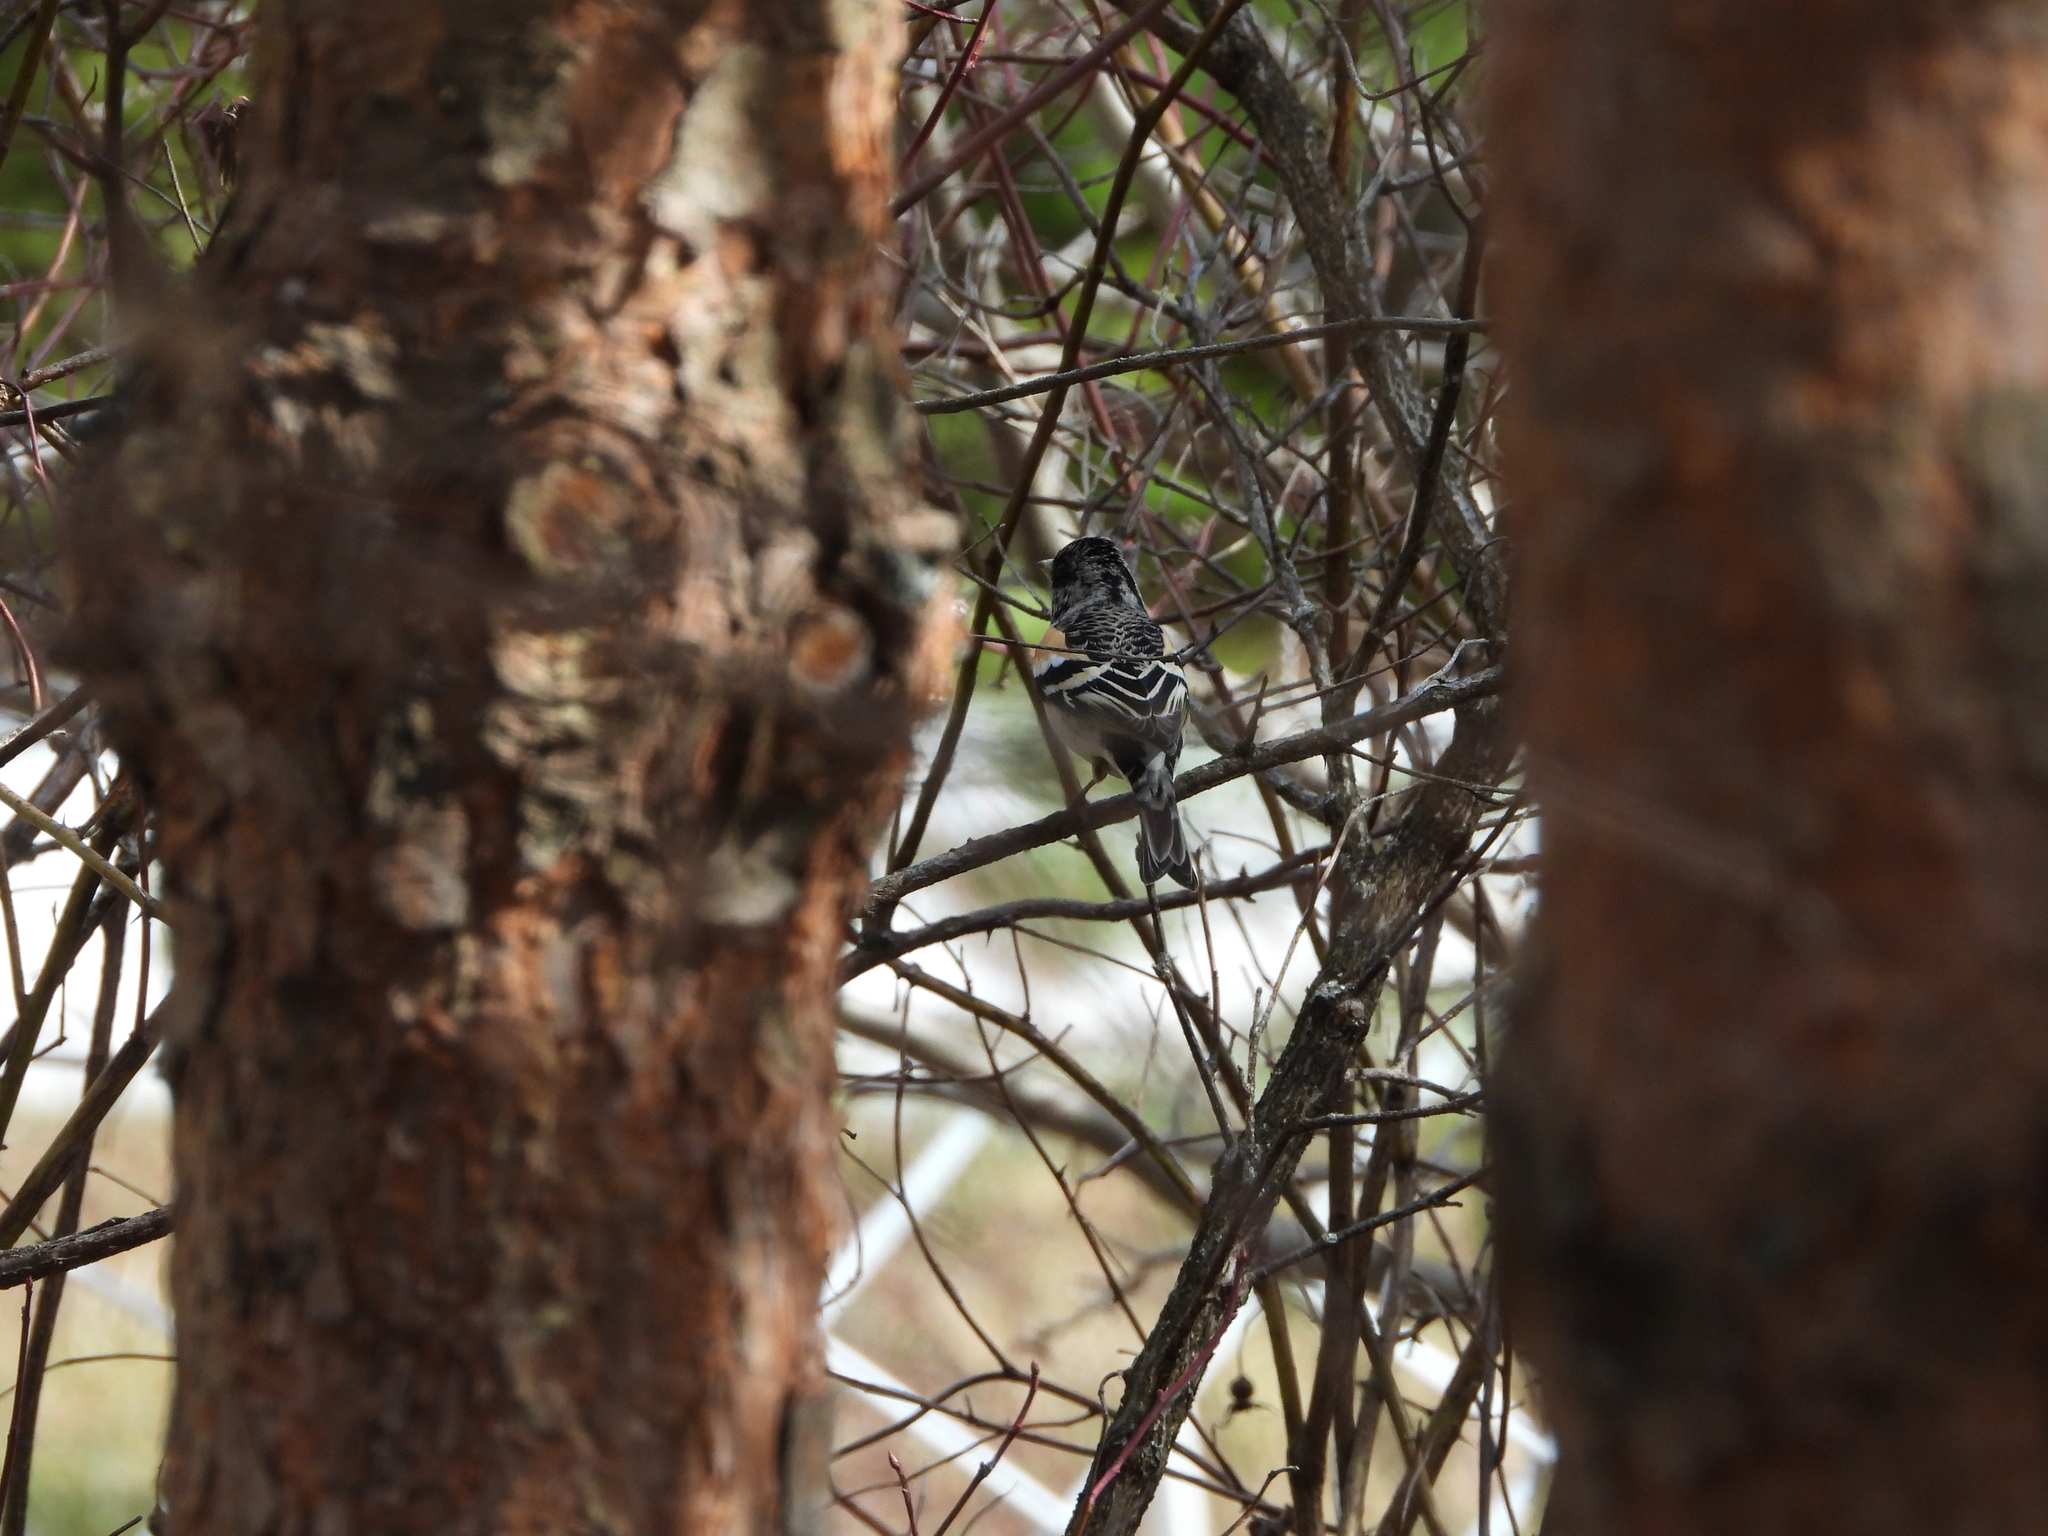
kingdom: Animalia
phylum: Chordata
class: Aves
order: Passeriformes
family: Fringillidae
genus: Fringilla
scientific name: Fringilla montifringilla
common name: Brambling
